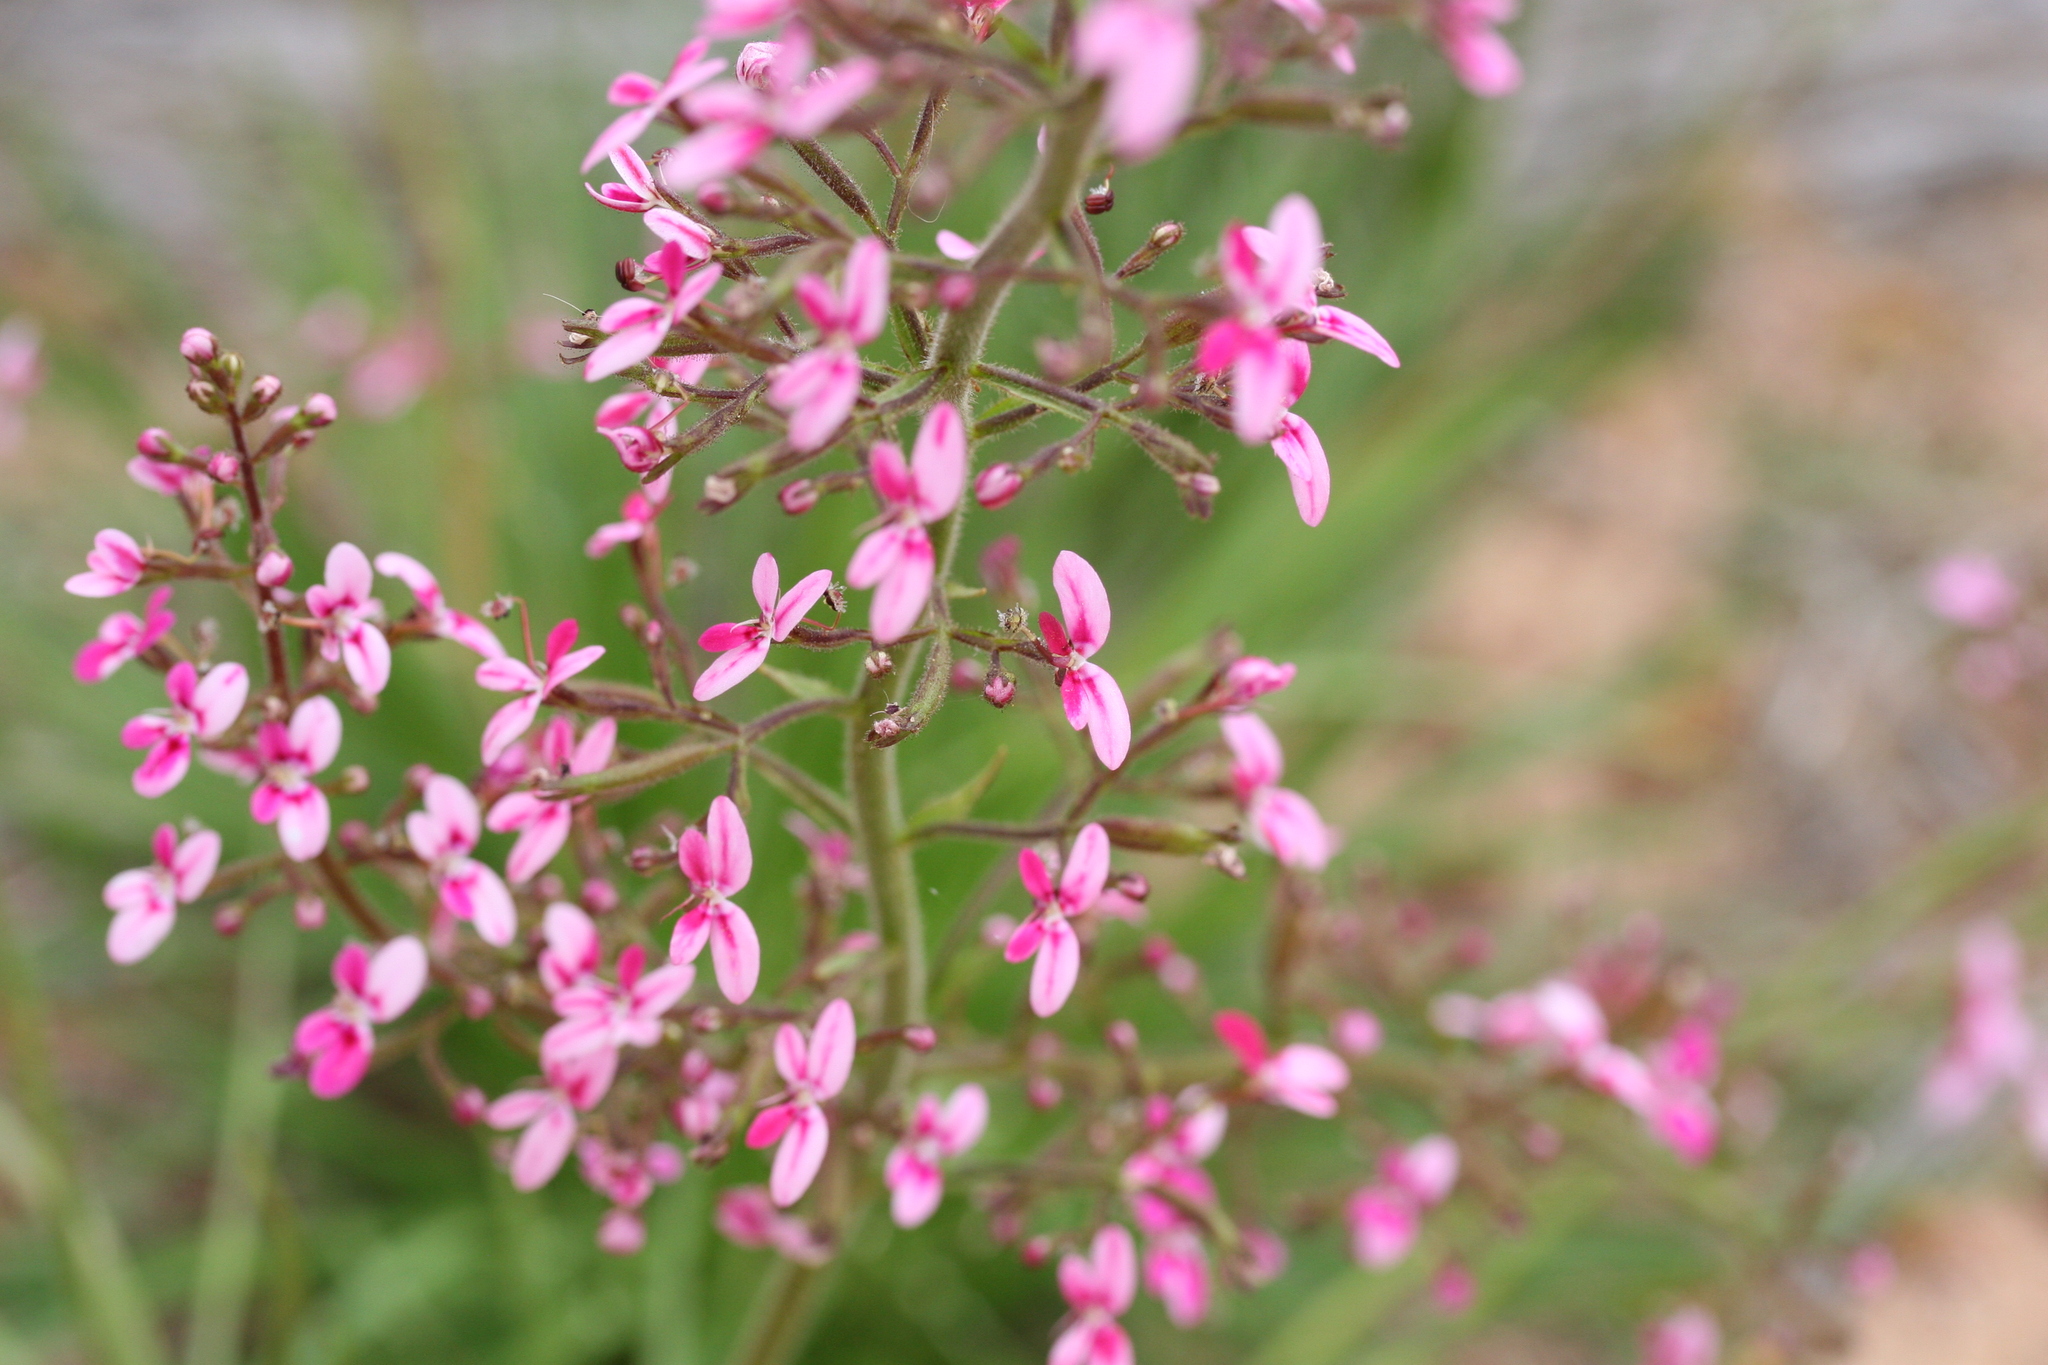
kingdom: Plantae
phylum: Tracheophyta
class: Magnoliopsida
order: Asterales
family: Stylidiaceae
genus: Stylidium
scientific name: Stylidium elongatum
